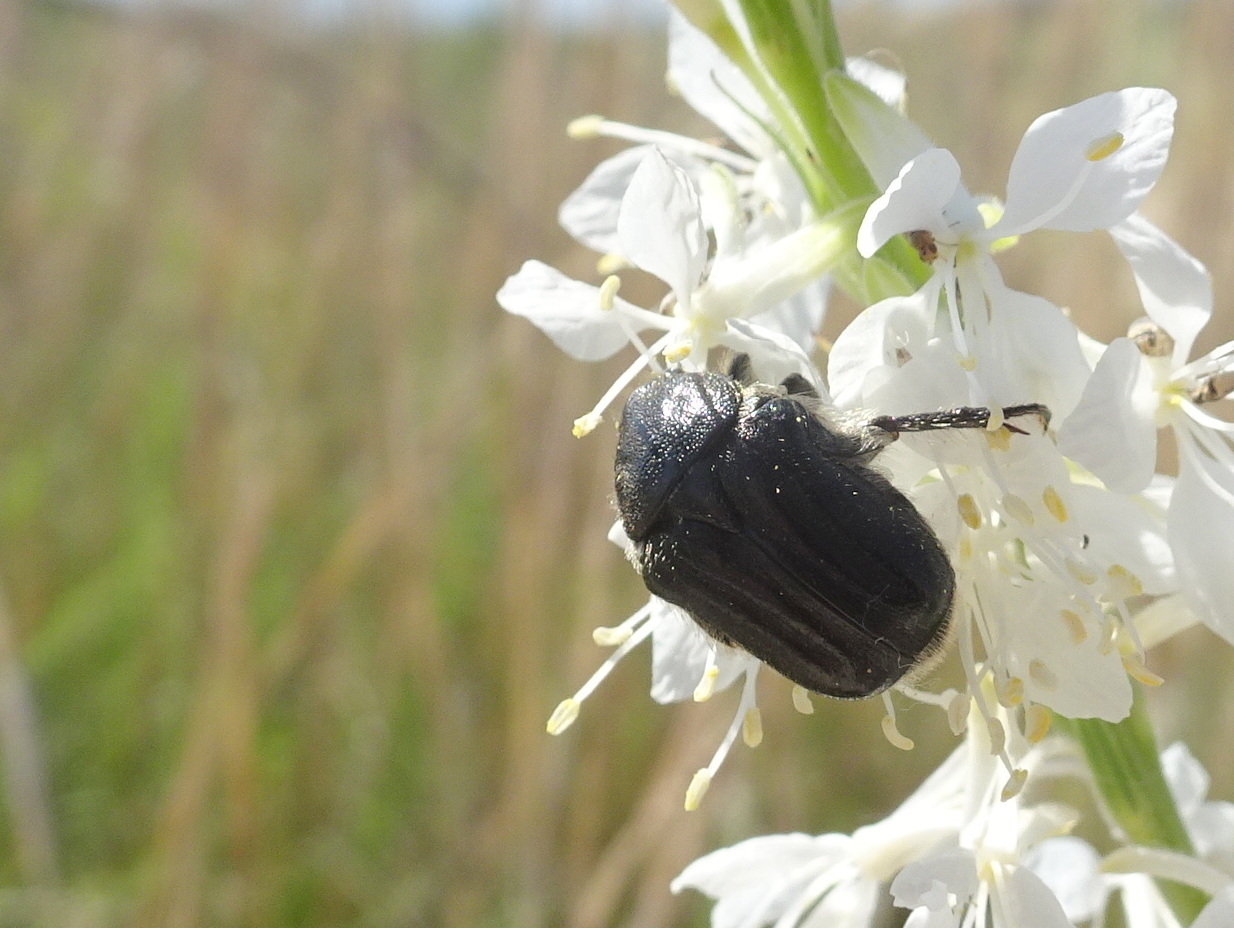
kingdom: Animalia
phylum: Arthropoda
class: Insecta
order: Coleoptera
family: Scarabaeidae
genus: Euphoria
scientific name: Euphoria kernii
